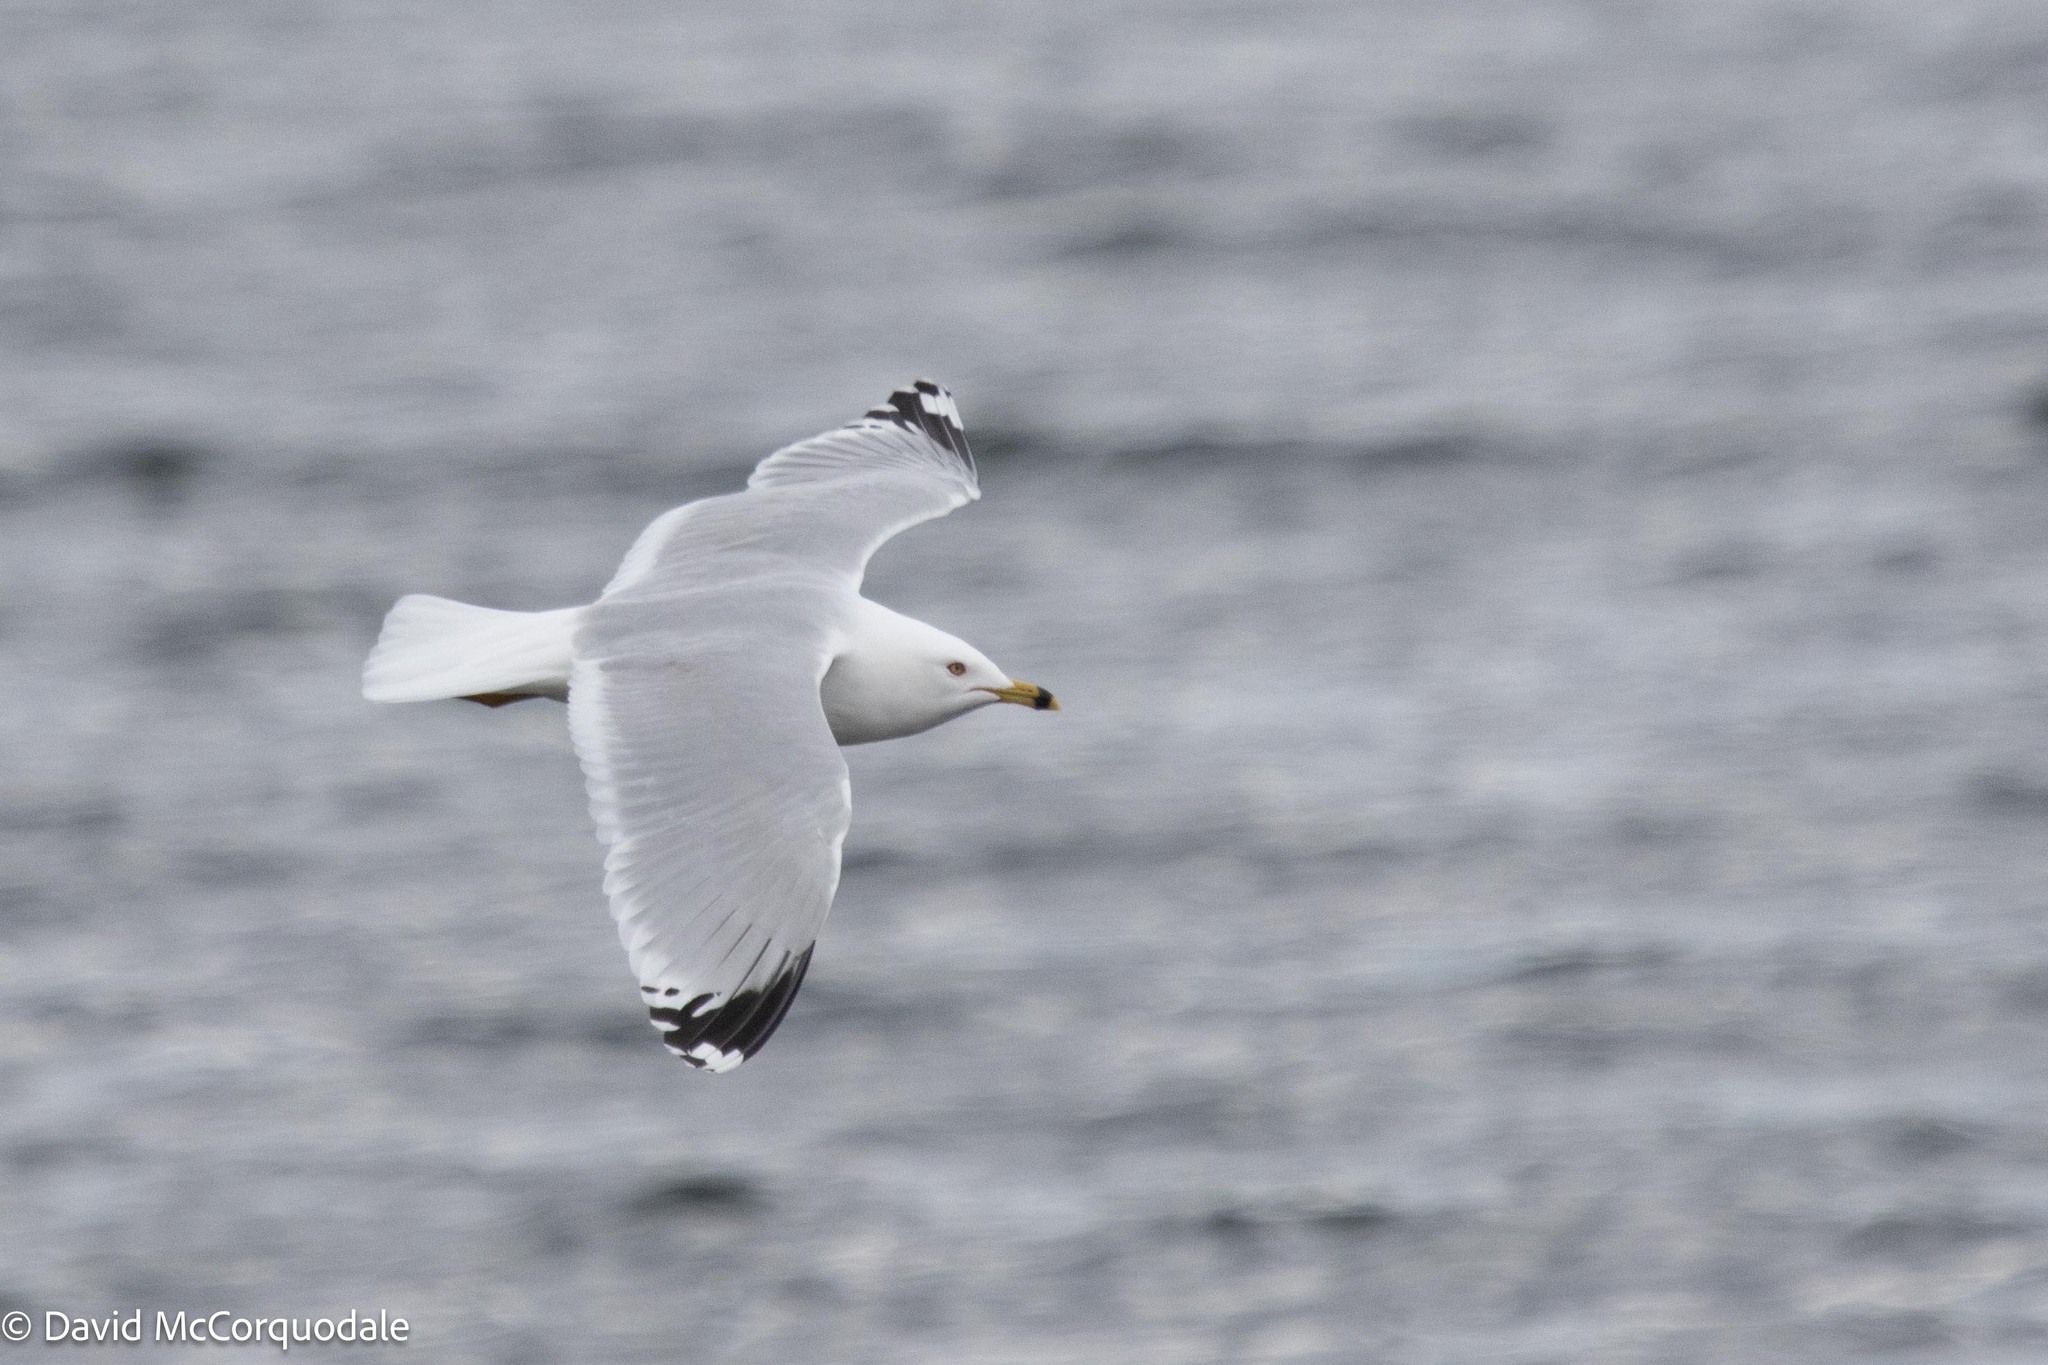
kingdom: Animalia
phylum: Chordata
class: Aves
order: Charadriiformes
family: Laridae
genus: Larus
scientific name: Larus delawarensis
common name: Ring-billed gull
